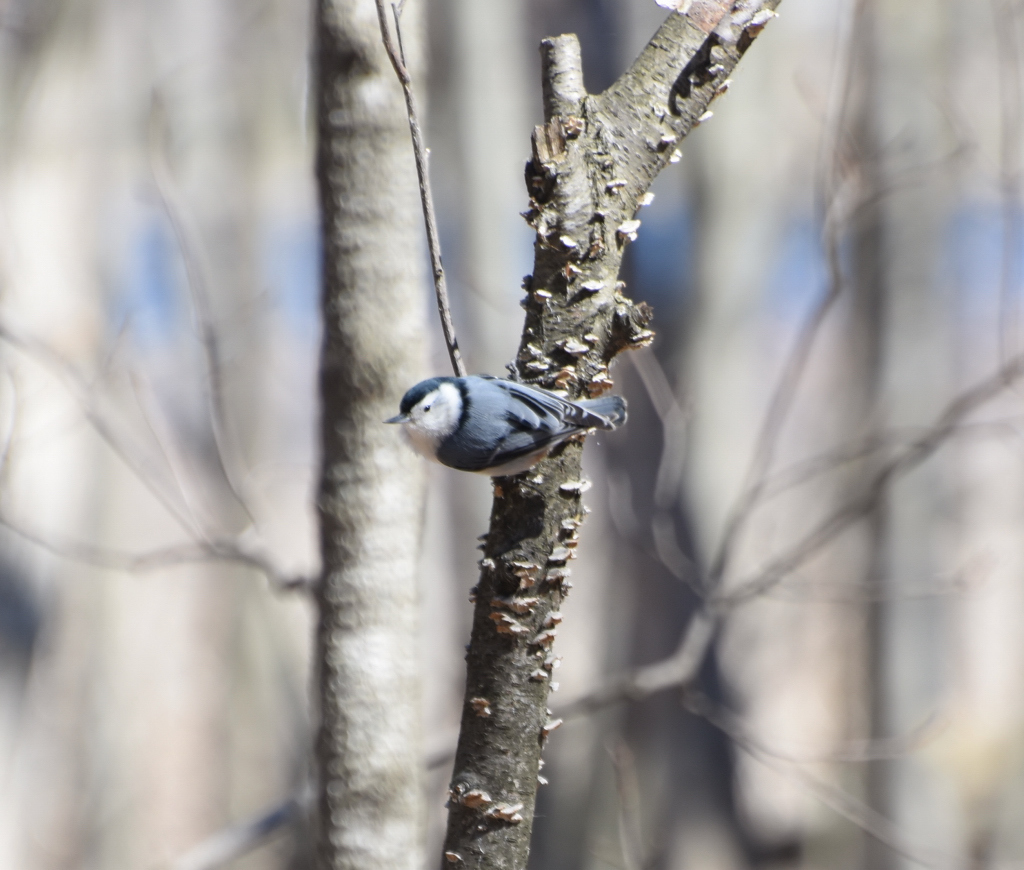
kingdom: Animalia
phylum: Chordata
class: Aves
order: Passeriformes
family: Sittidae
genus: Sitta
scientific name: Sitta carolinensis
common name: White-breasted nuthatch
